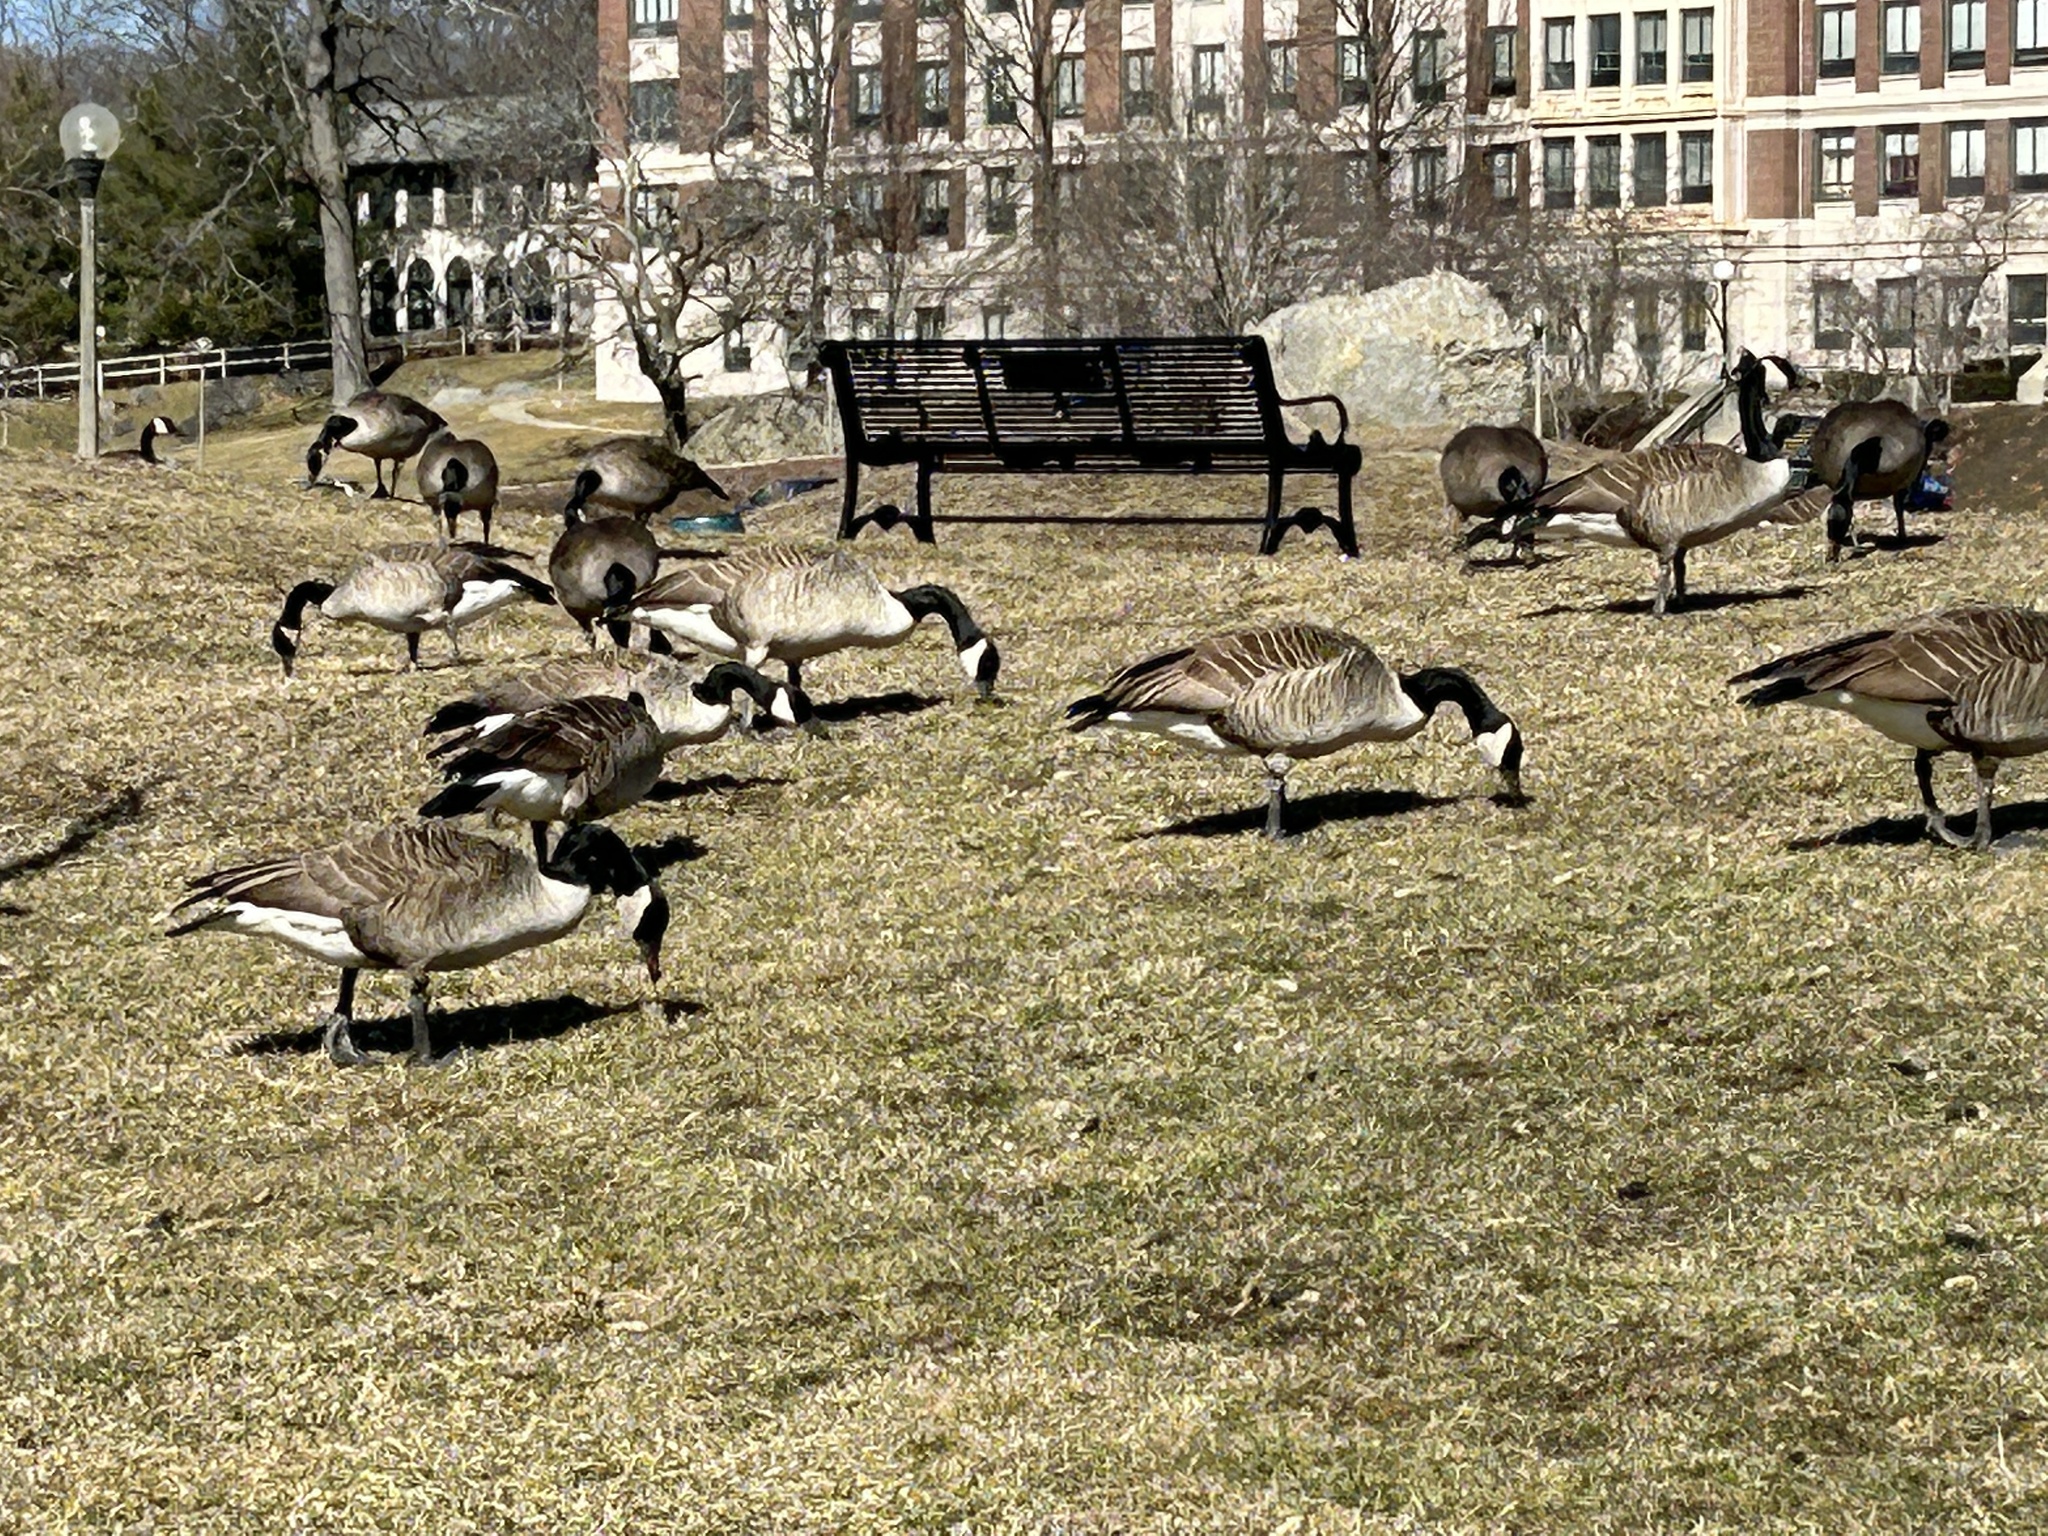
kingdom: Animalia
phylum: Chordata
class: Aves
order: Anseriformes
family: Anatidae
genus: Branta
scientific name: Branta canadensis
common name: Canada goose
